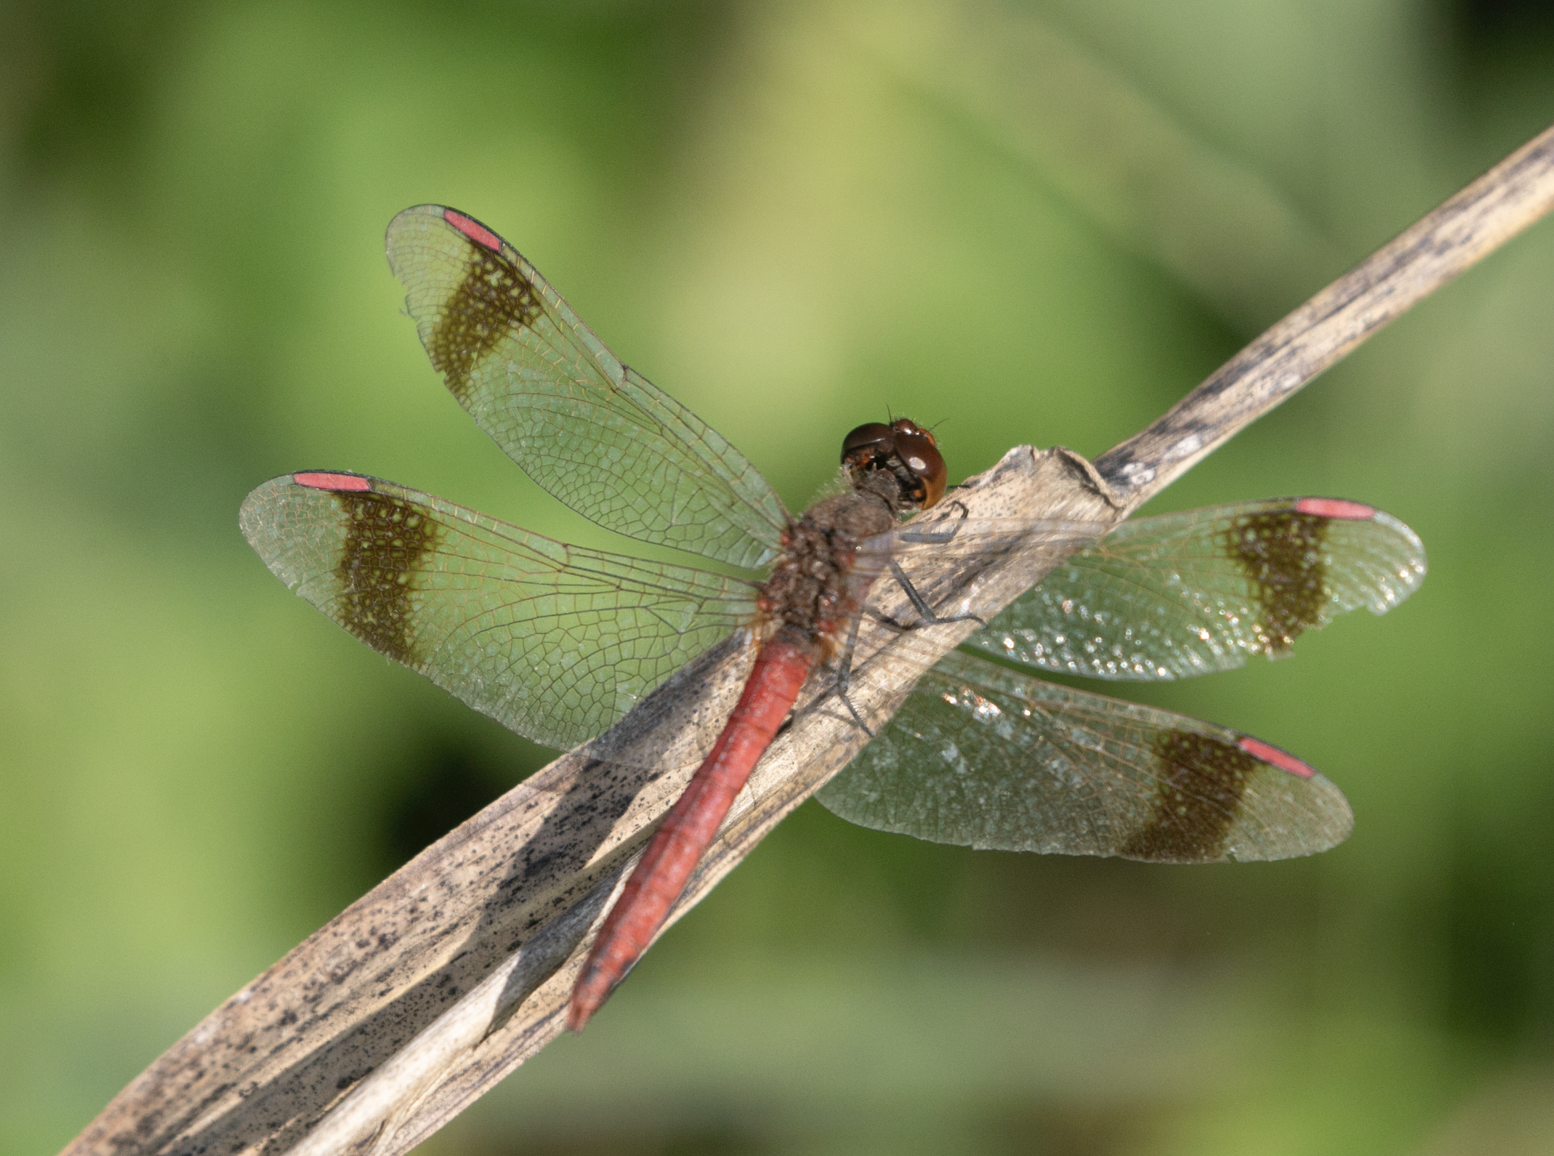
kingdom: Animalia
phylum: Arthropoda
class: Insecta
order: Odonata
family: Libellulidae
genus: Sympetrum
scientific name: Sympetrum pedemontanum
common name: Banded darter
